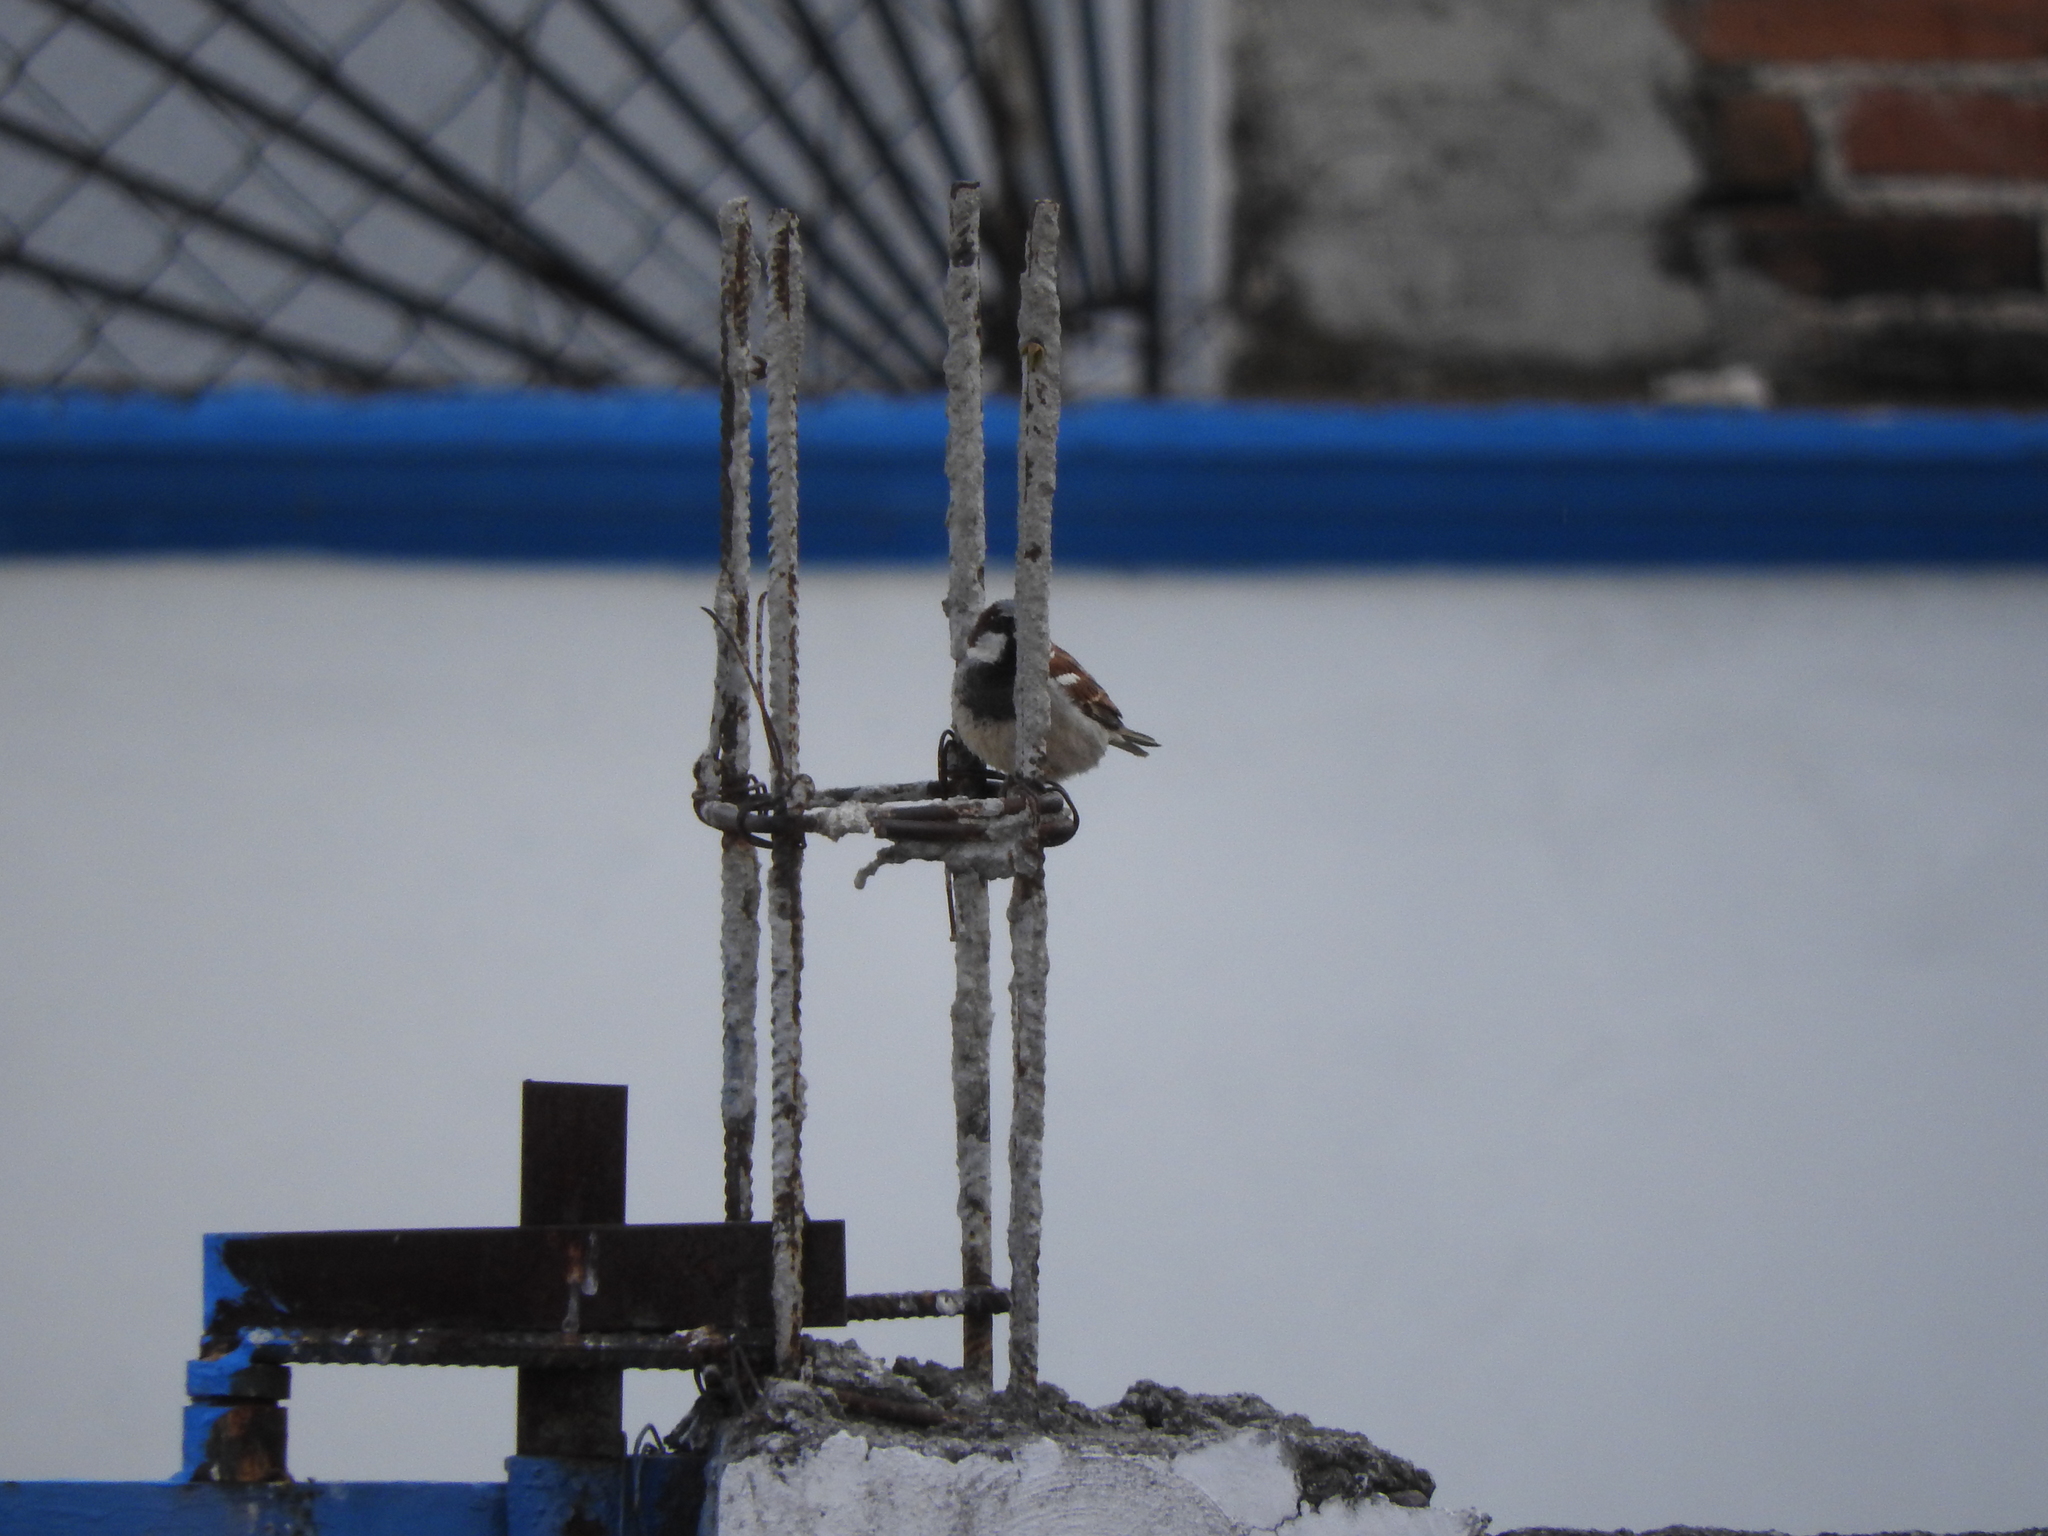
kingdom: Animalia
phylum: Chordata
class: Aves
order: Passeriformes
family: Passeridae
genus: Passer
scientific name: Passer domesticus
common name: House sparrow
